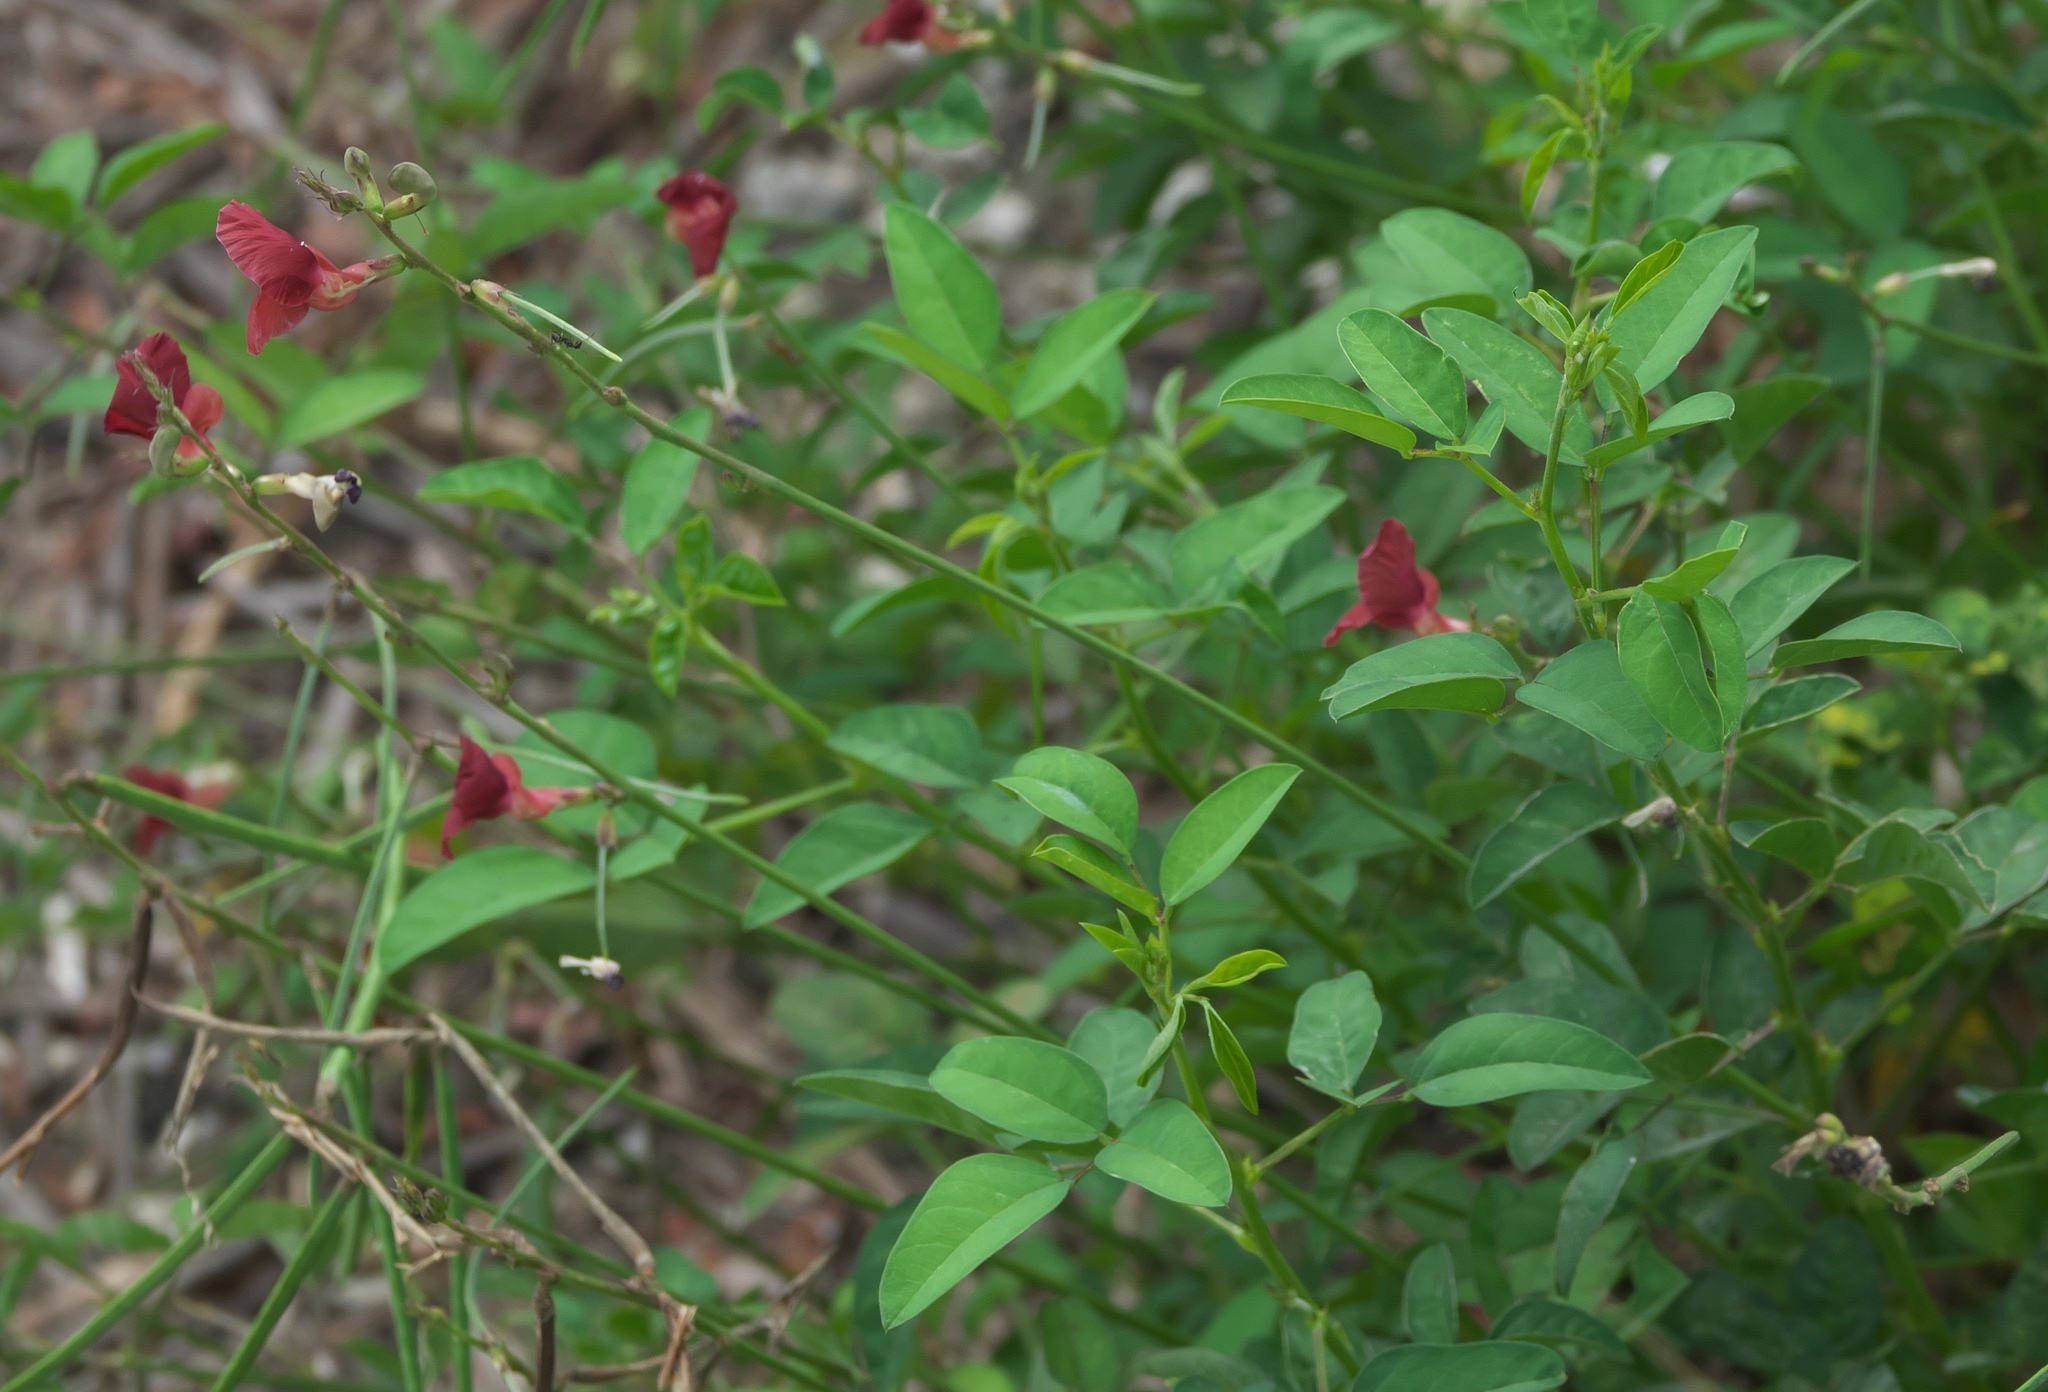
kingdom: Plantae
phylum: Tracheophyta
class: Magnoliopsida
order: Fabales
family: Fabaceae
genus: Macroptilium
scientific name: Macroptilium lathyroides
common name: Wild bushbean
